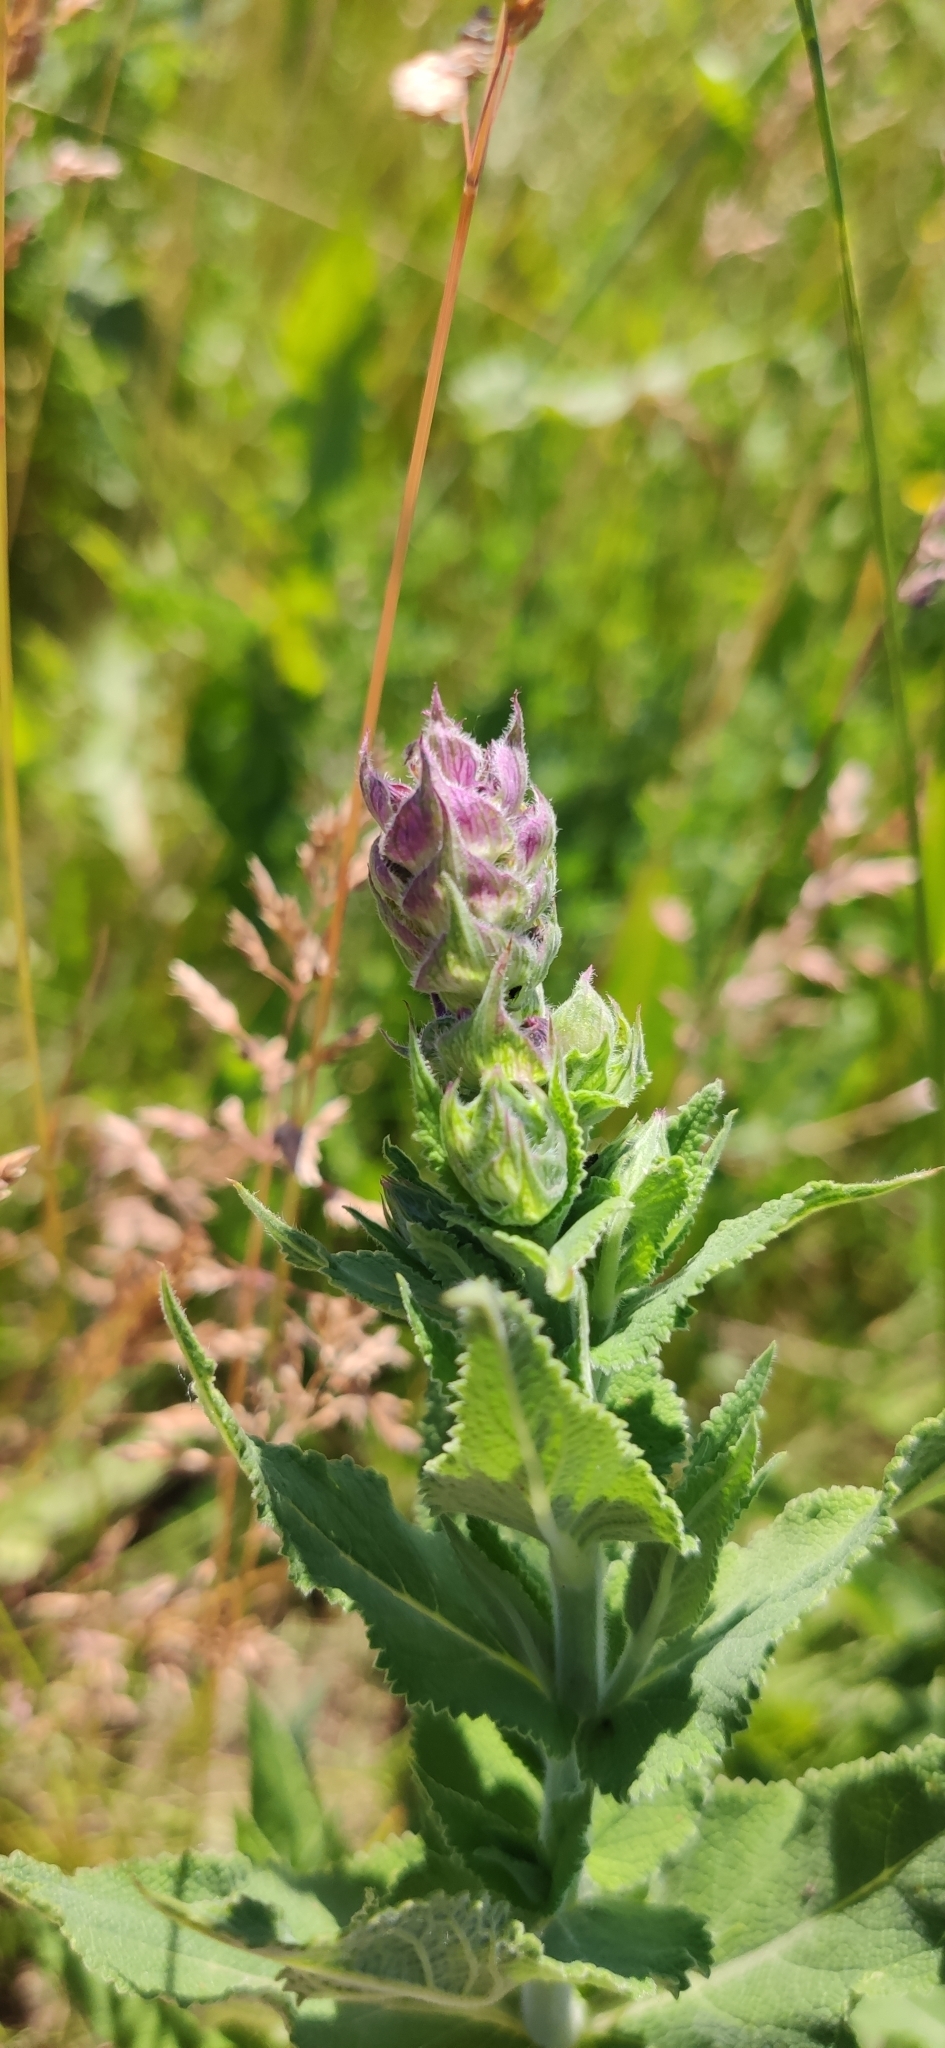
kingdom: Plantae
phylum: Tracheophyta
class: Magnoliopsida
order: Lamiales
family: Lamiaceae
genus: Salvia
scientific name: Salvia nemorosa
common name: Balkan clary
